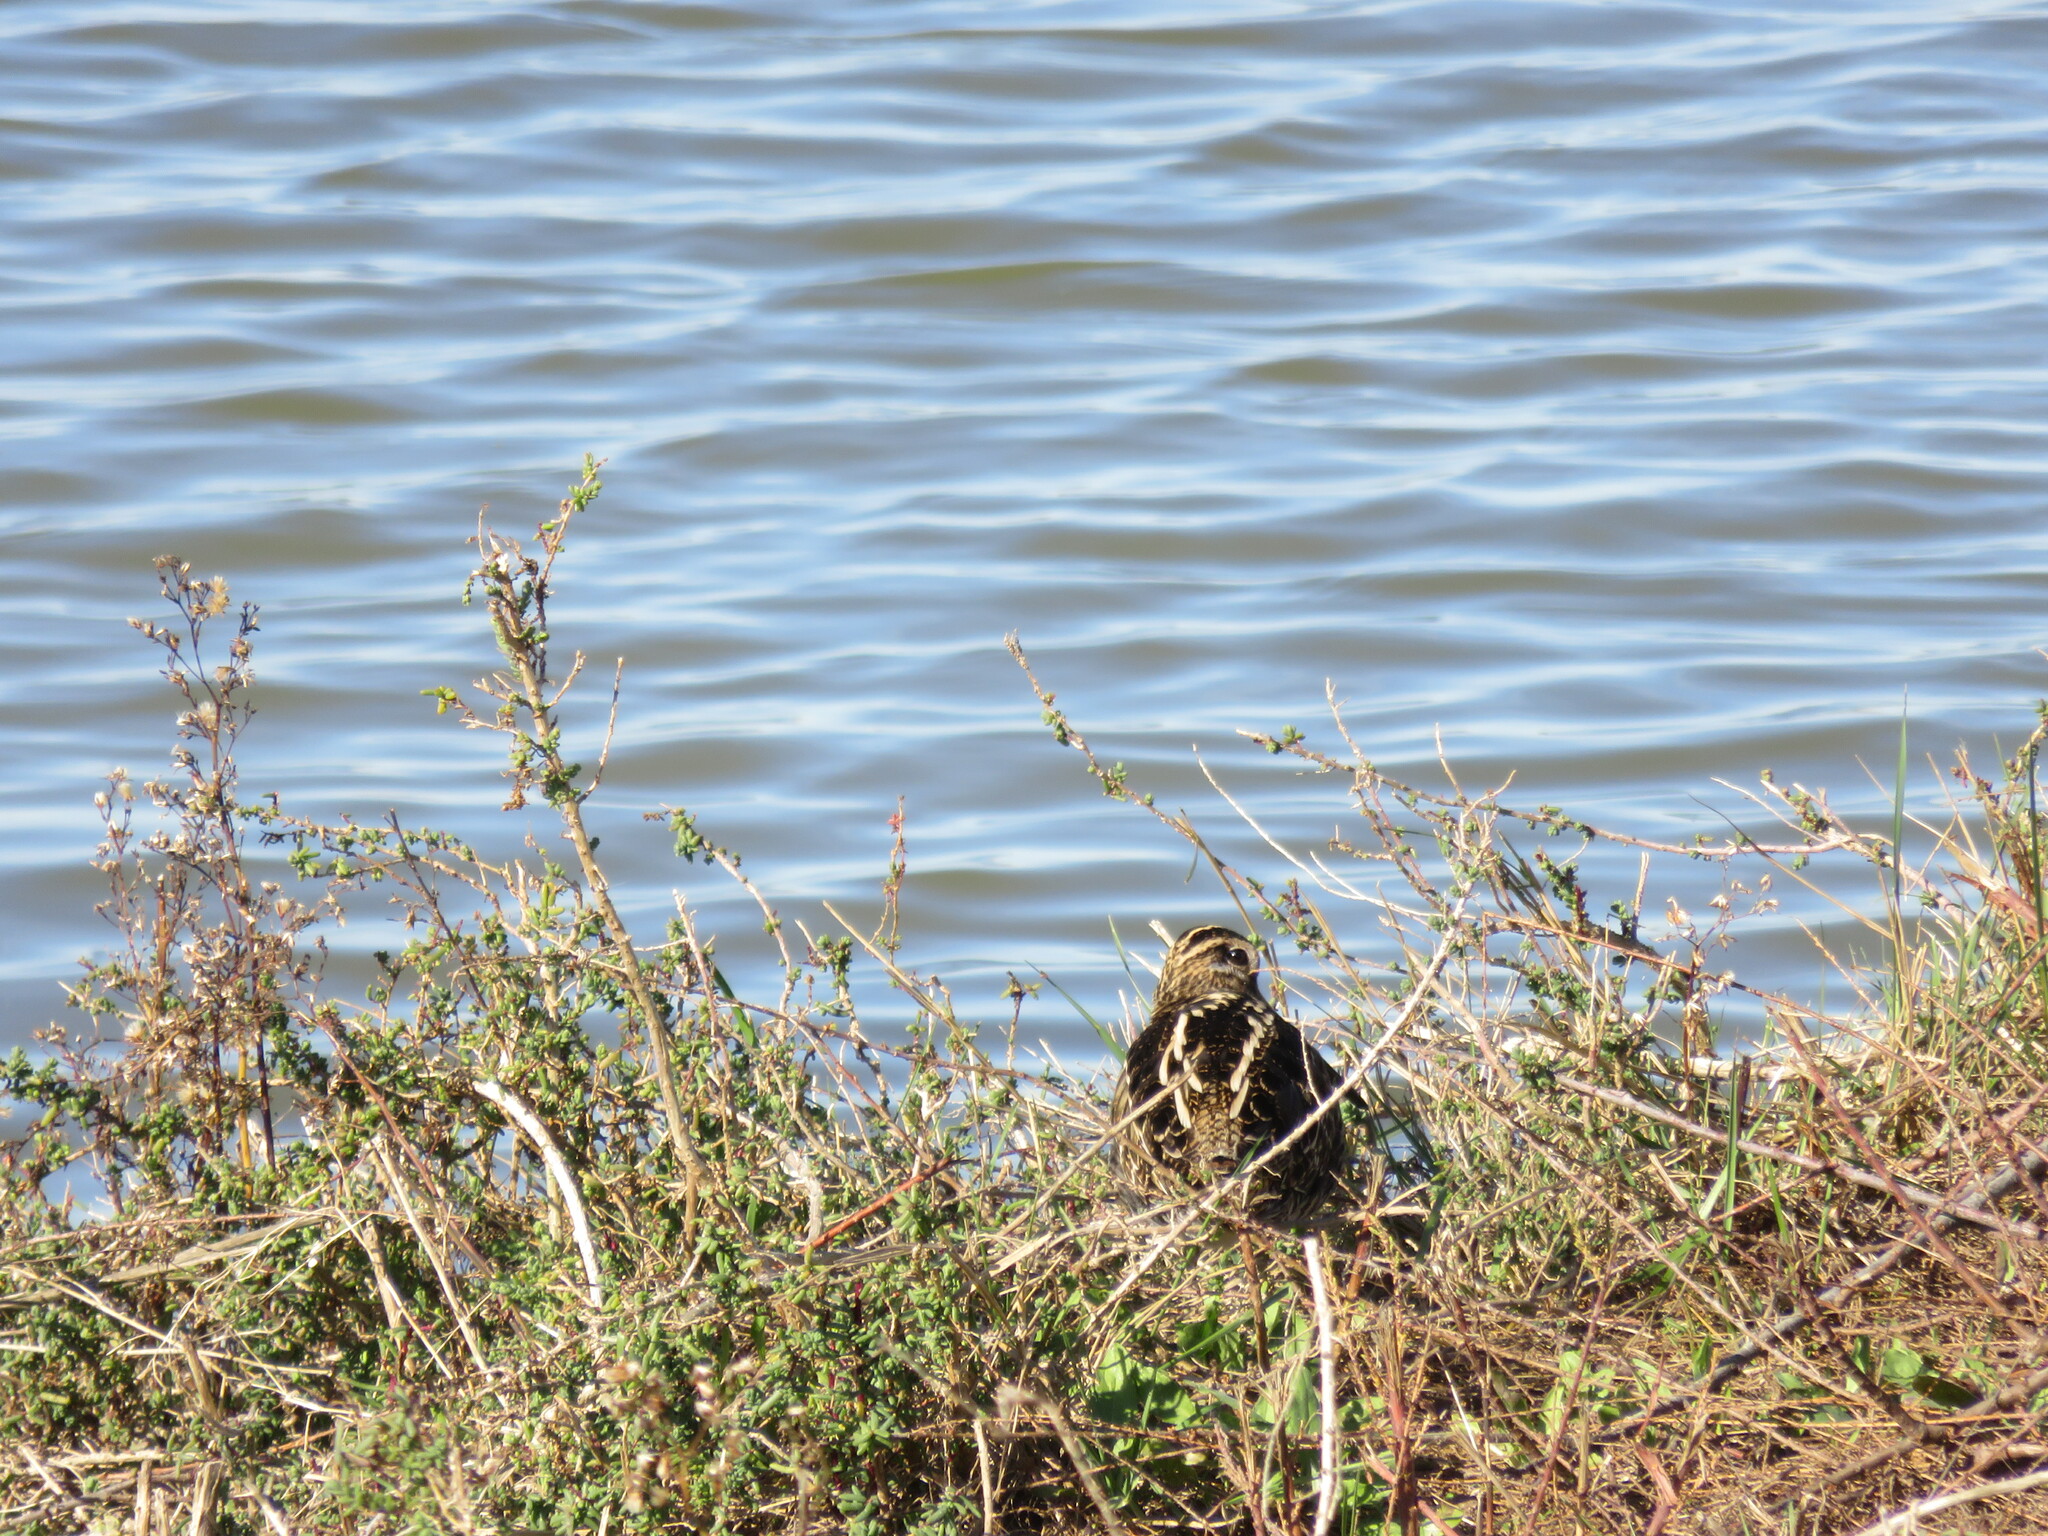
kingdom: Animalia
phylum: Chordata
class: Aves
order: Charadriiformes
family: Scolopacidae
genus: Gallinago
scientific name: Gallinago gallinago
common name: Common snipe
